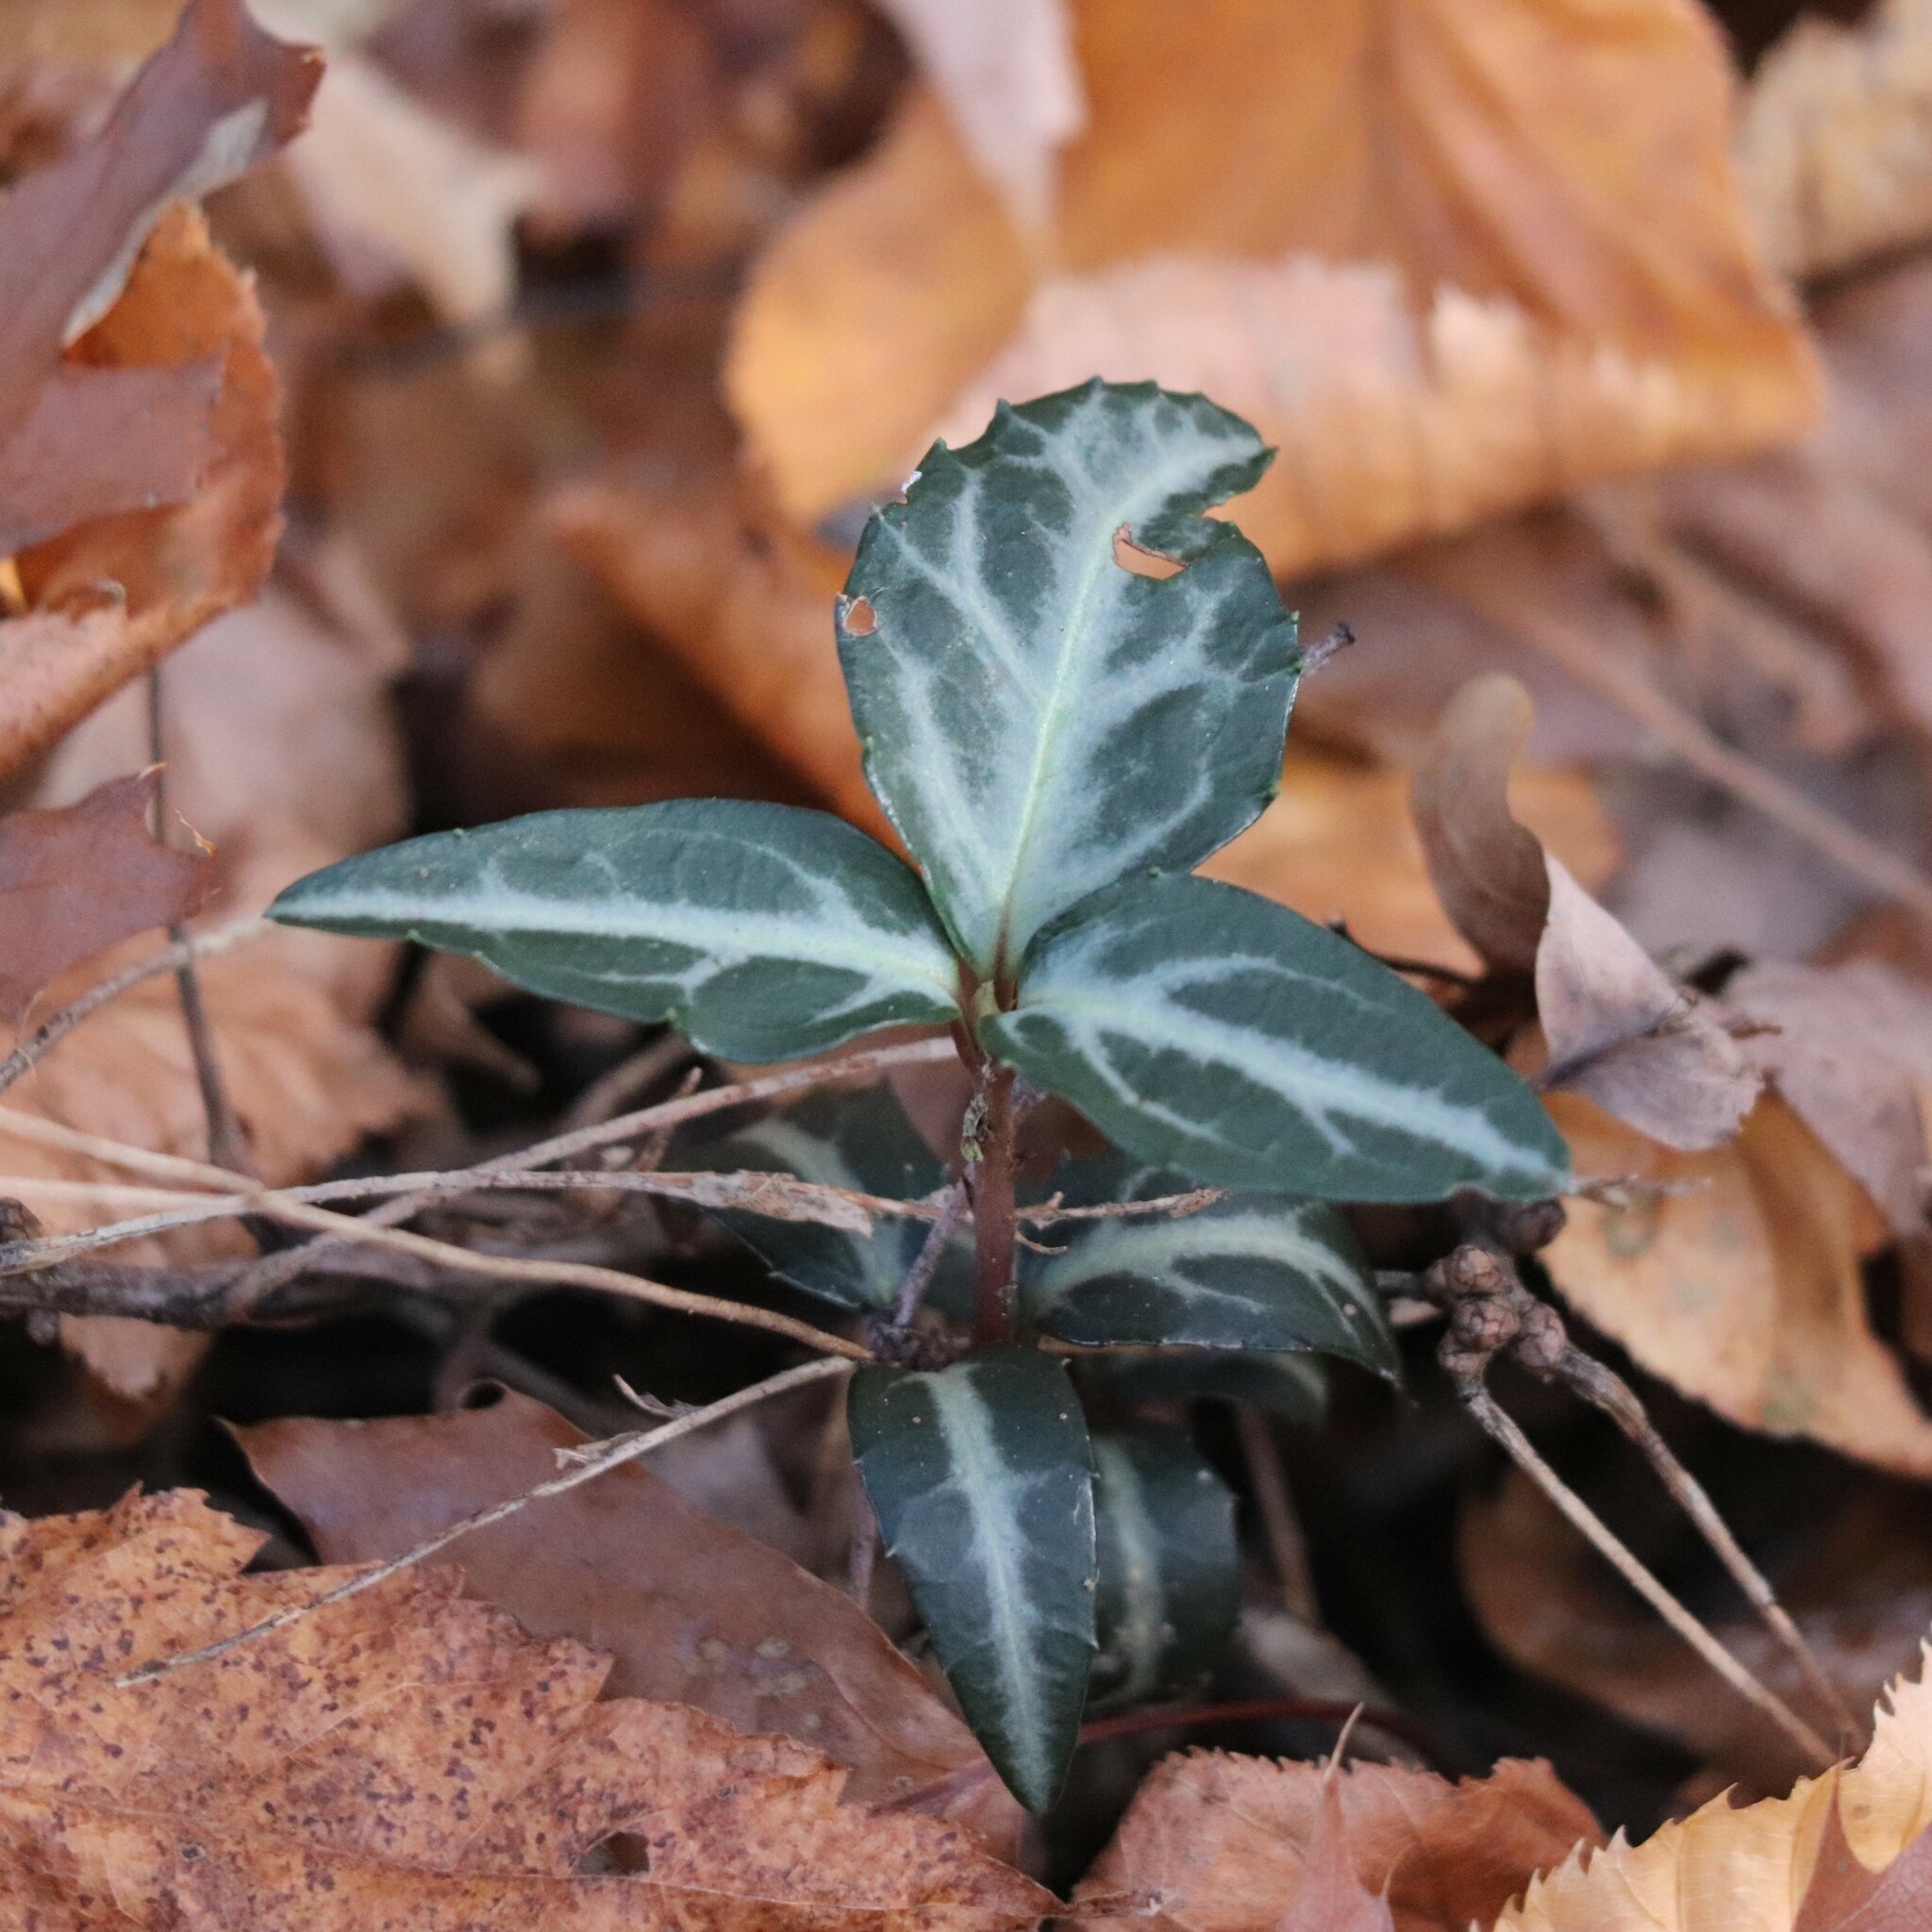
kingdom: Plantae
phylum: Tracheophyta
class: Magnoliopsida
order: Ericales
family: Ericaceae
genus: Chimaphila
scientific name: Chimaphila maculata
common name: Spotted pipsissewa
